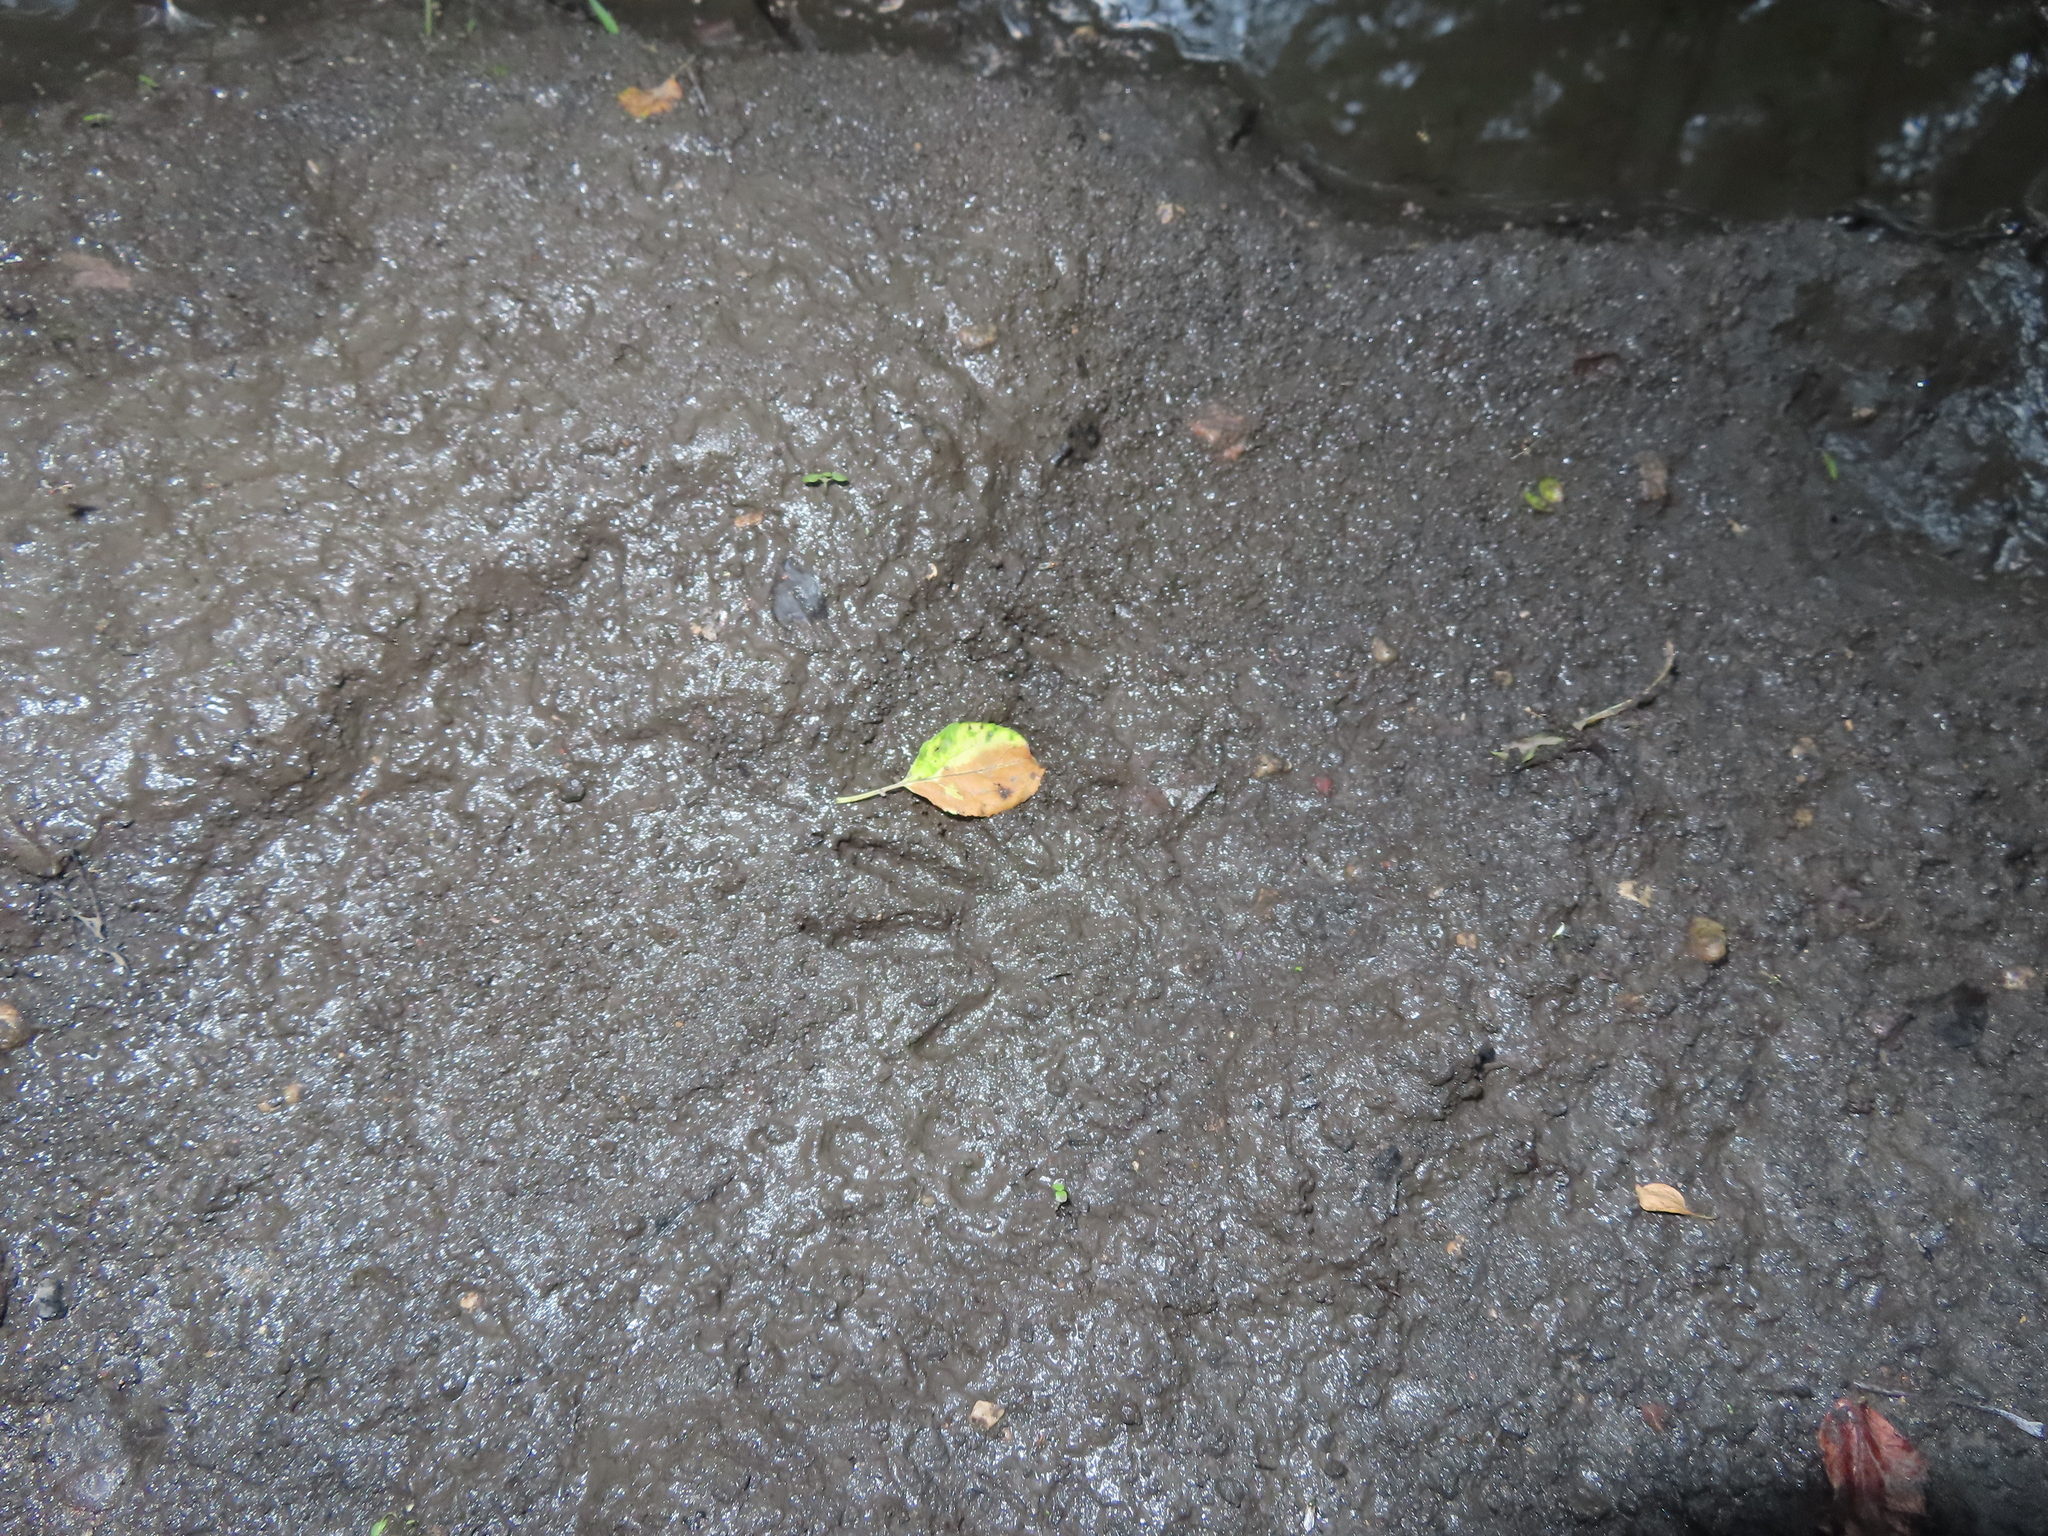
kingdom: Animalia
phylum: Chordata
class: Mammalia
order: Carnivora
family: Procyonidae
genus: Procyon
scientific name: Procyon lotor
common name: Raccoon
